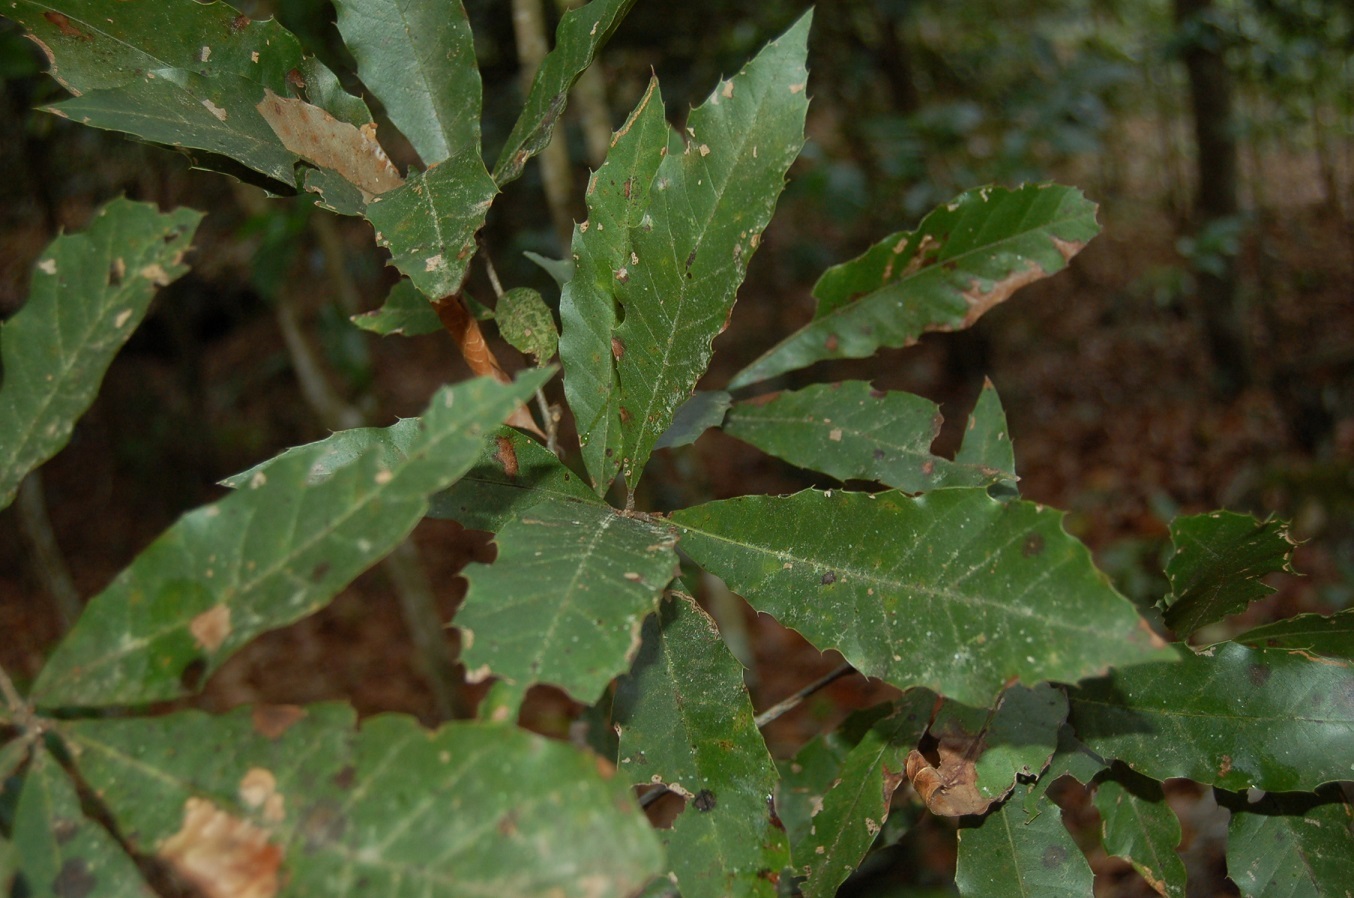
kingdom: Plantae
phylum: Tracheophyta
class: Magnoliopsida
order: Fagales
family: Fagaceae
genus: Quercus
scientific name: Quercus cortesii
